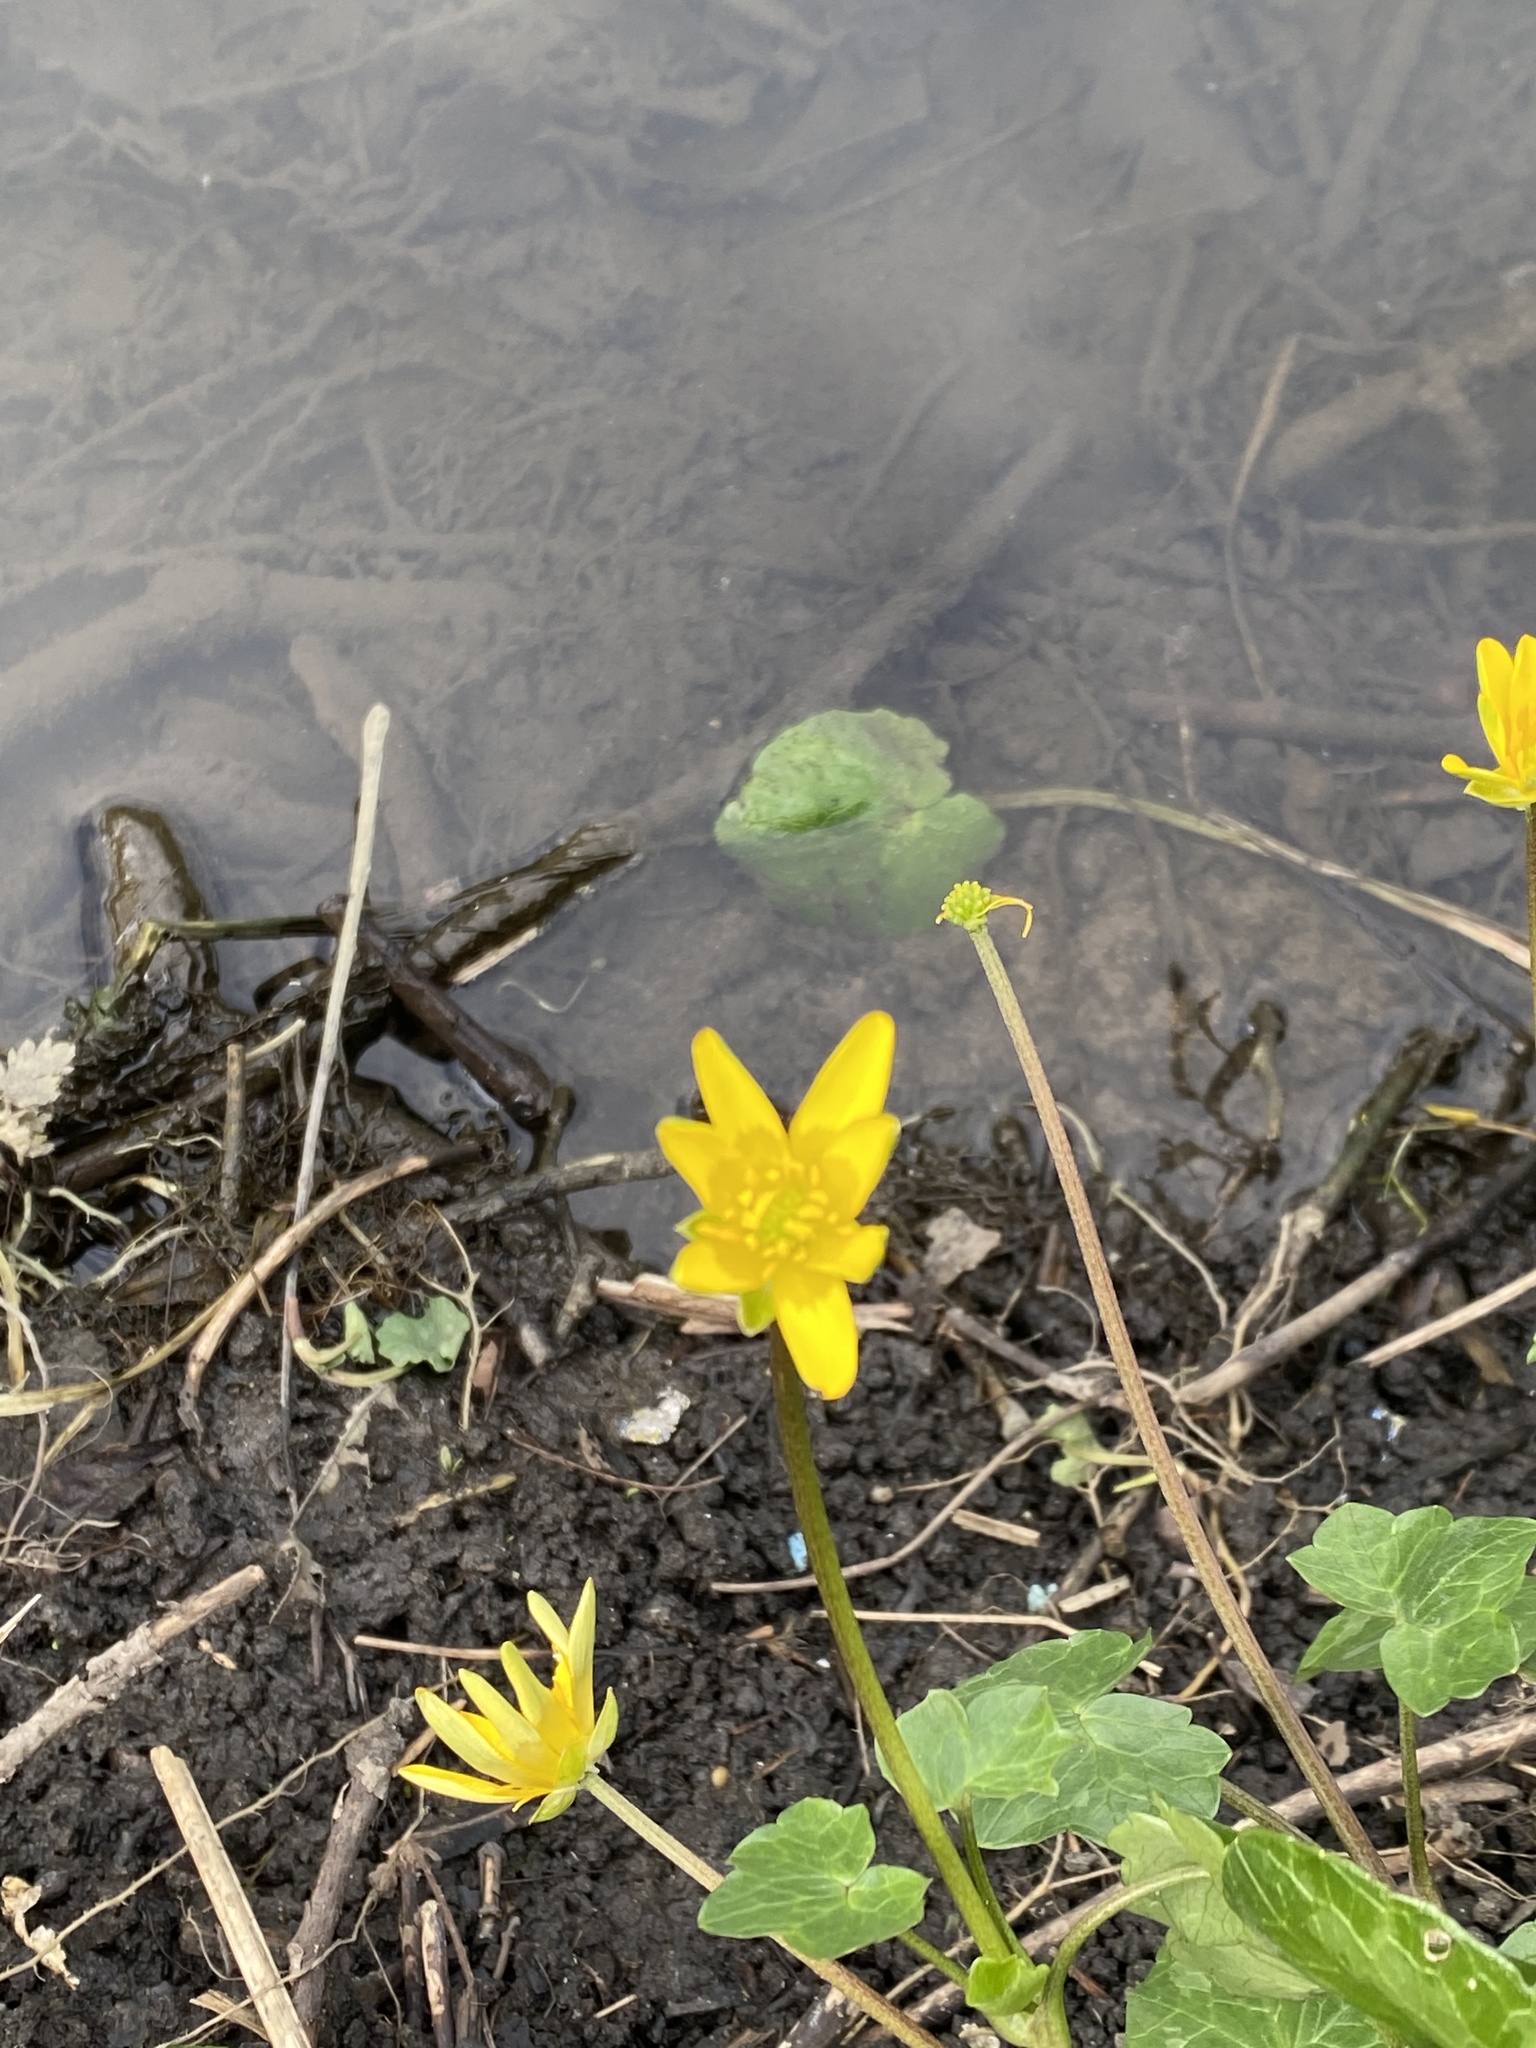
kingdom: Plantae
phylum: Tracheophyta
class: Magnoliopsida
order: Ranunculales
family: Ranunculaceae
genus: Ficaria
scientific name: Ficaria verna
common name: Lesser celandine
